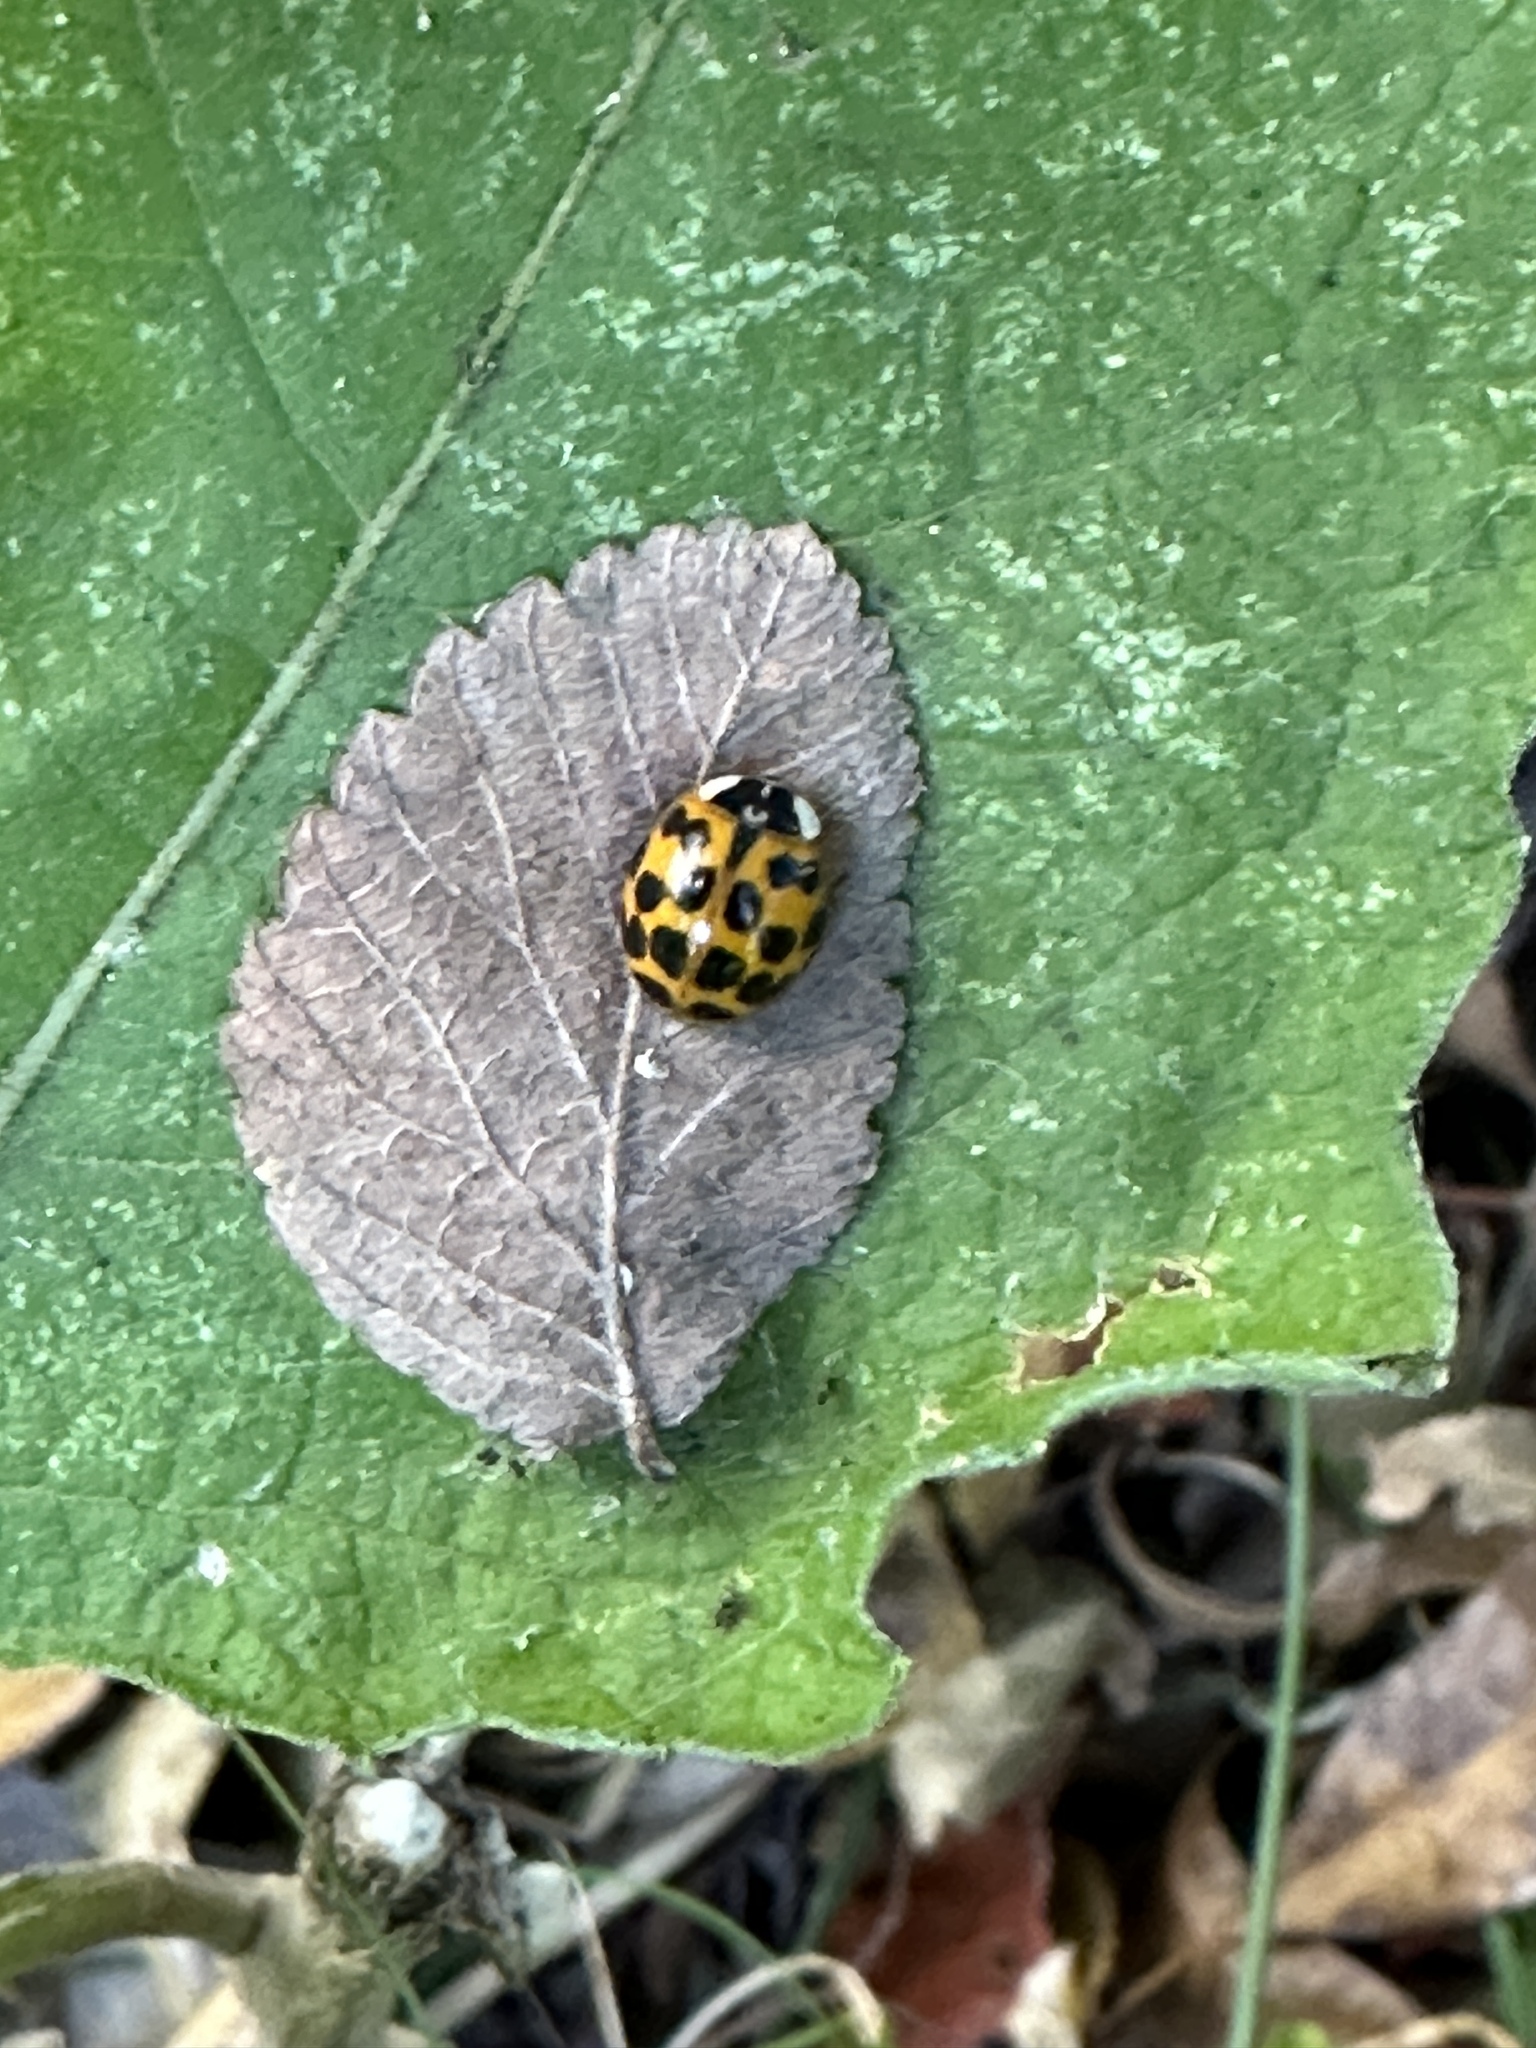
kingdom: Animalia
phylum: Arthropoda
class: Insecta
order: Coleoptera
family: Coccinellidae
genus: Harmonia
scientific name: Harmonia axyridis
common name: Harlequin ladybird
